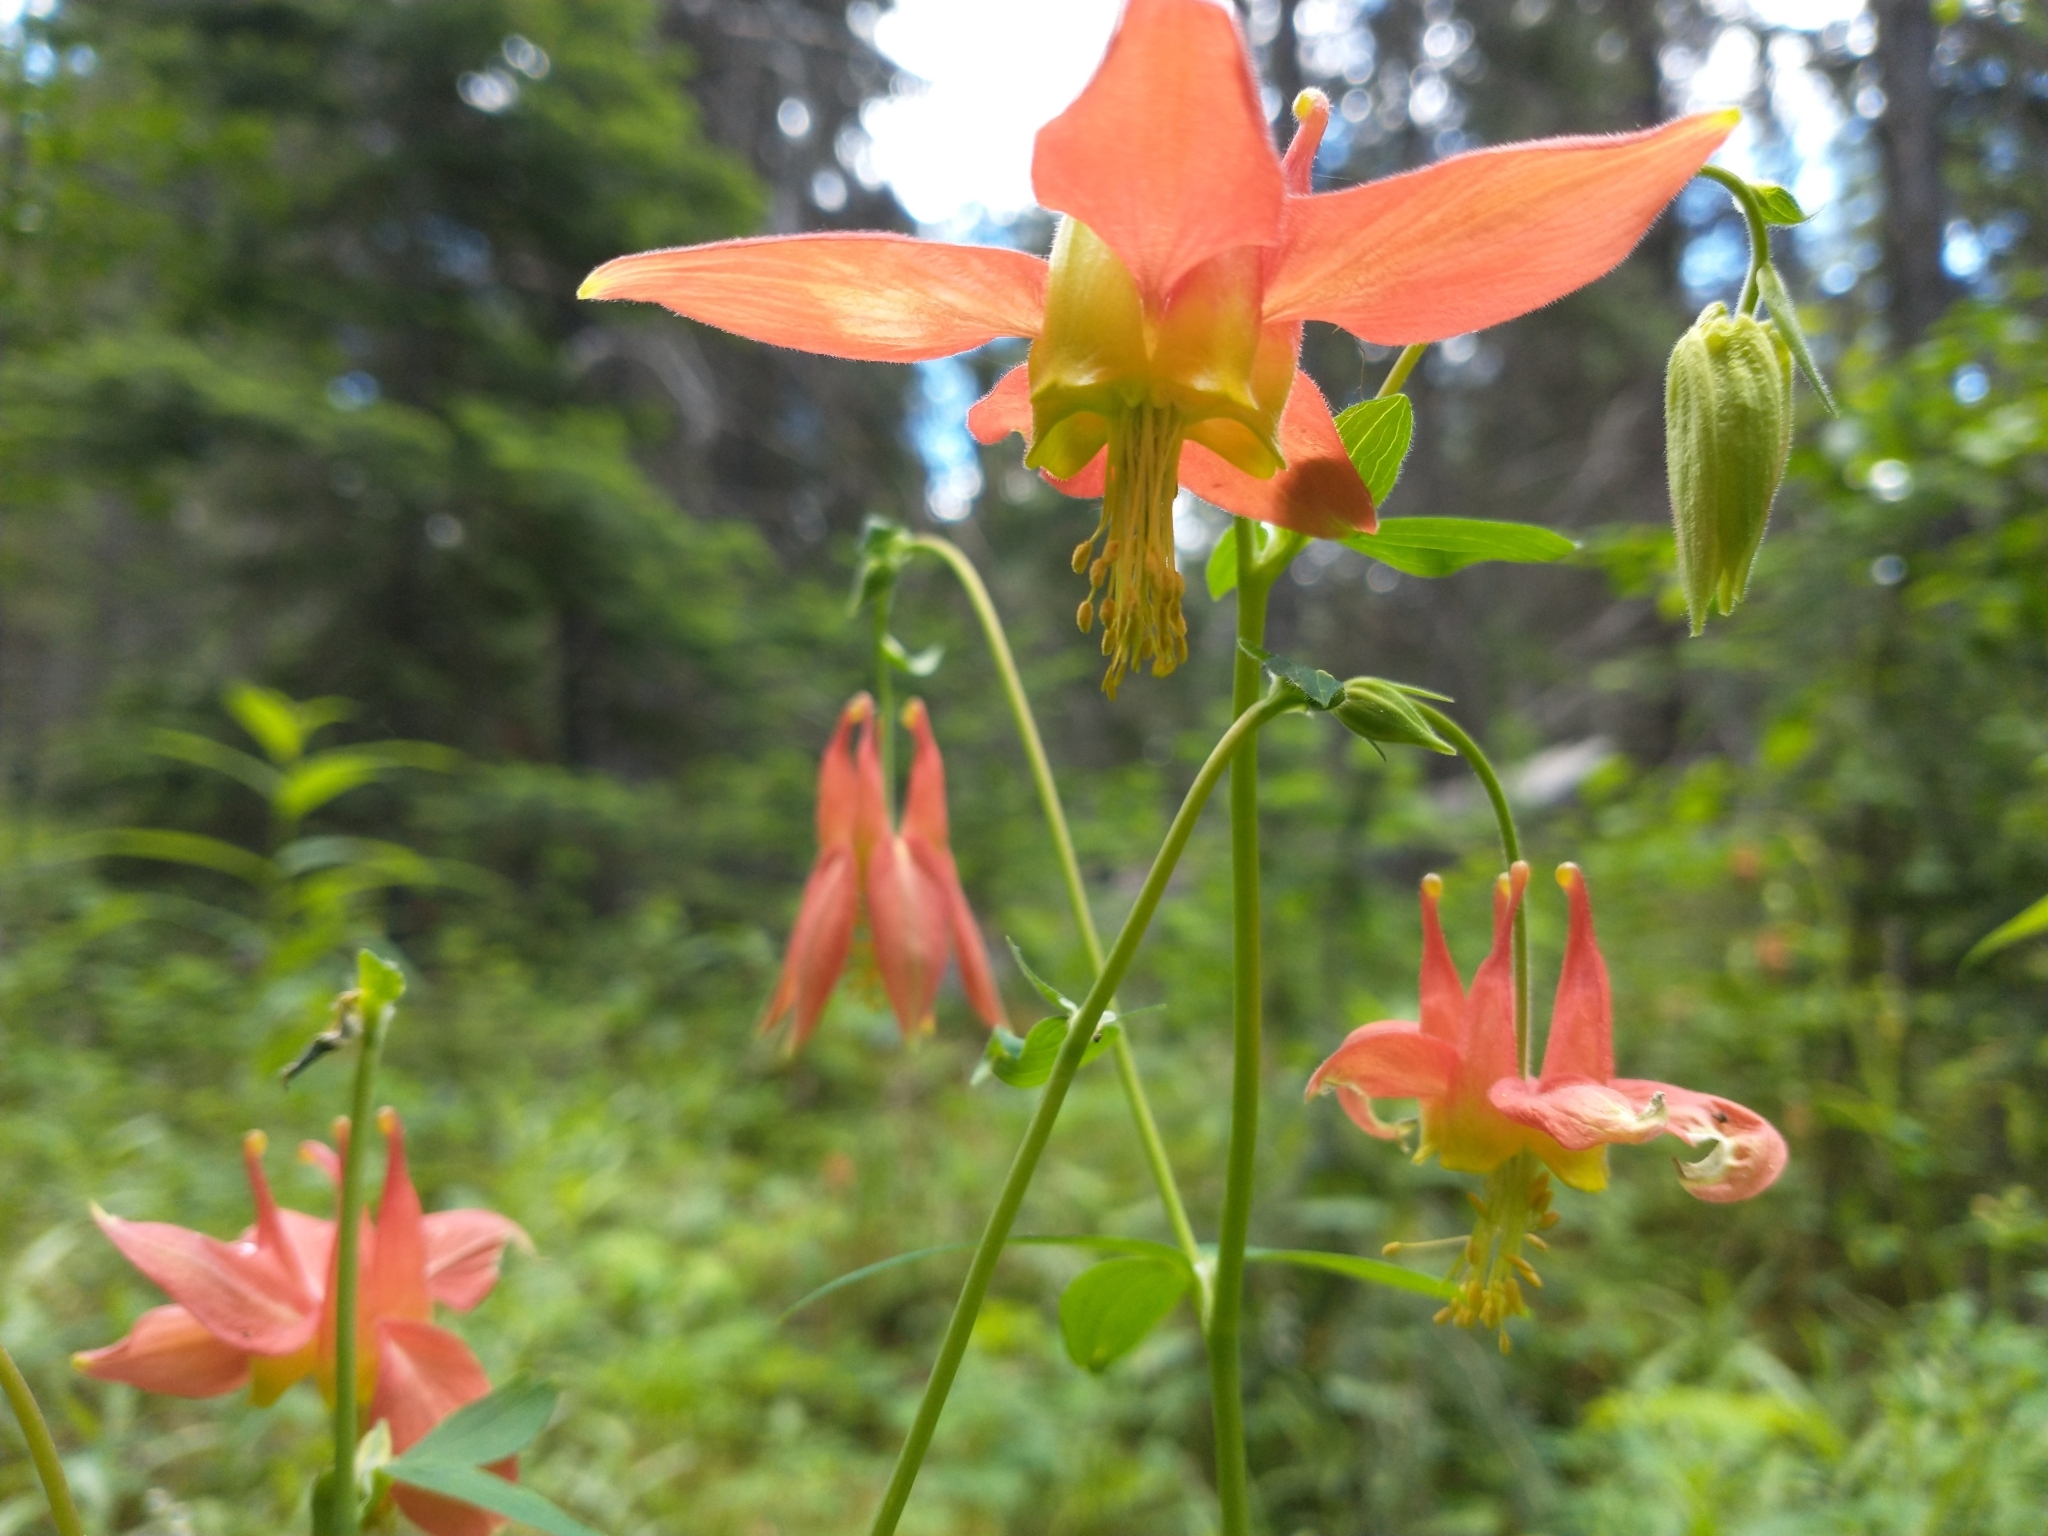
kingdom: Plantae
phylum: Tracheophyta
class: Magnoliopsida
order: Ranunculales
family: Ranunculaceae
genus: Aquilegia
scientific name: Aquilegia formosa
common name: Sitka columbine
